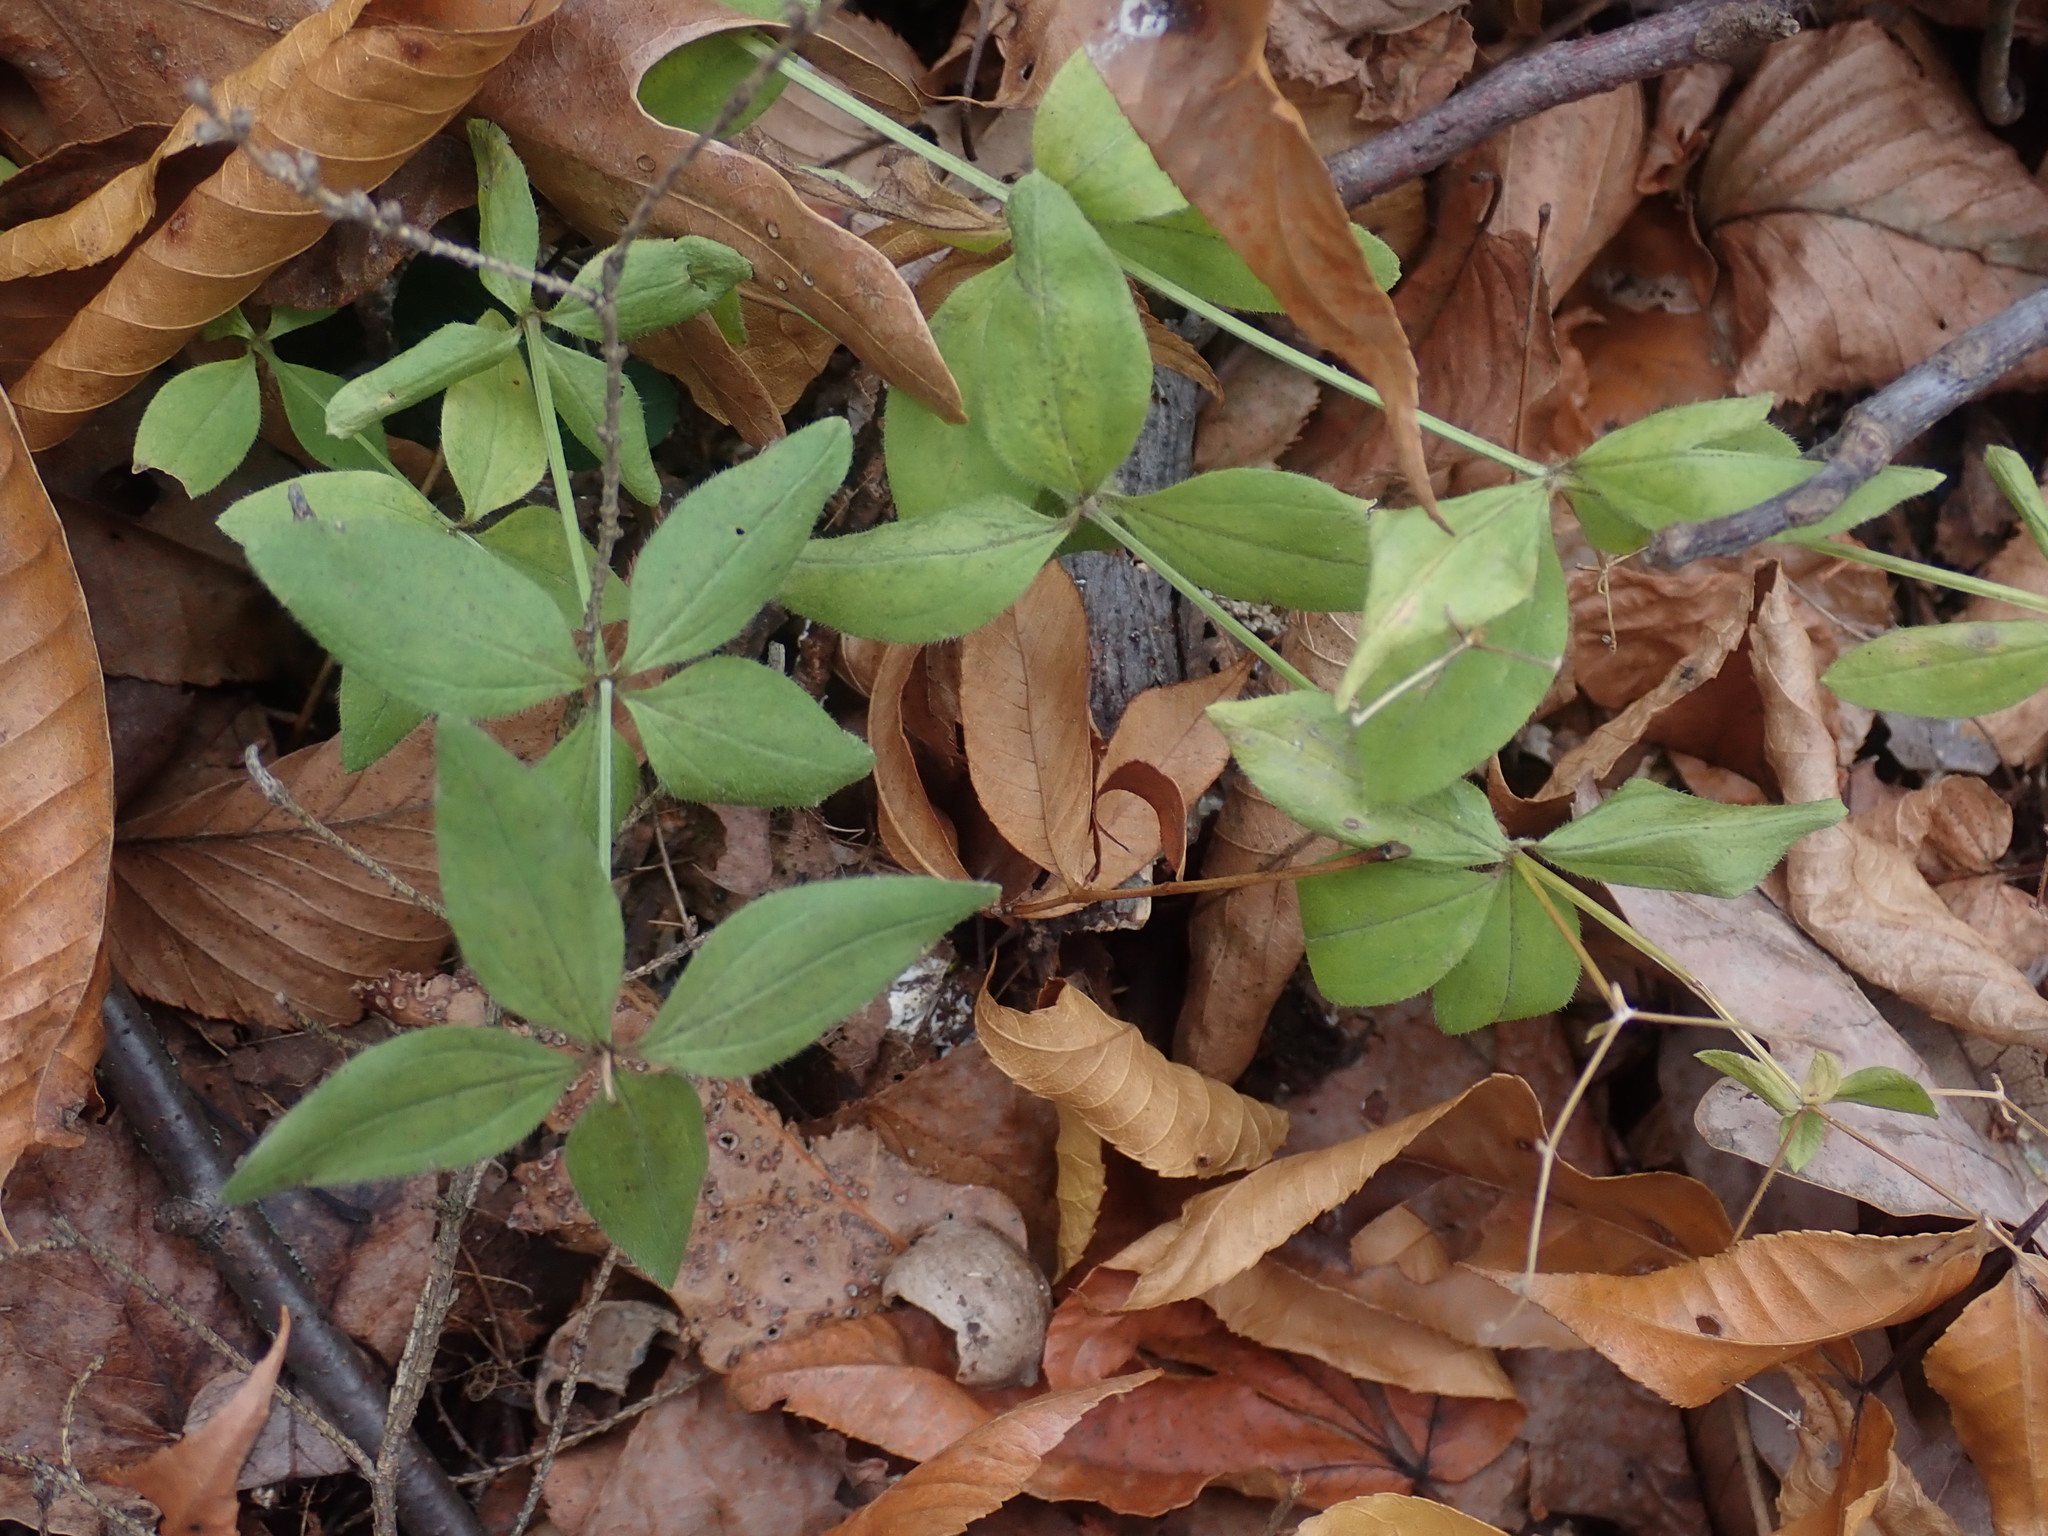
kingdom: Plantae
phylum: Tracheophyta
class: Magnoliopsida
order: Gentianales
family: Rubiaceae
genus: Galium
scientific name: Galium circaezans
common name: Forest bedstraw
